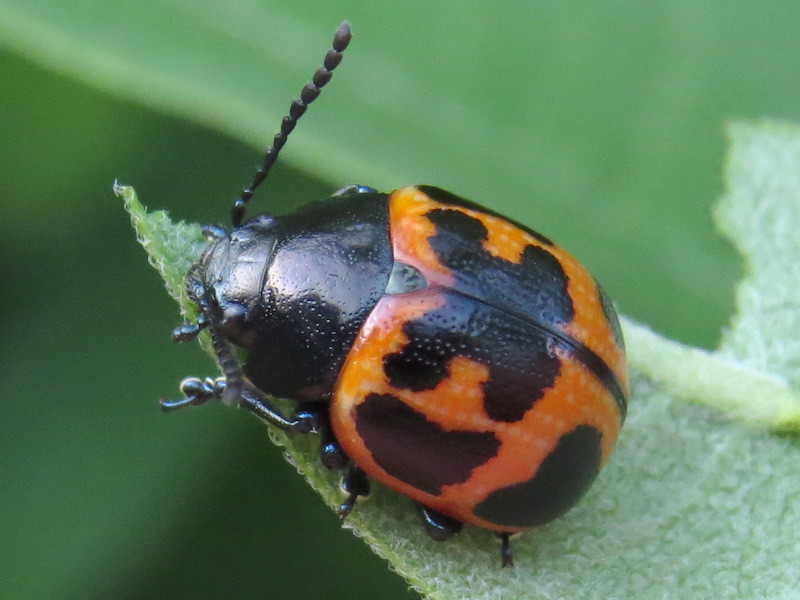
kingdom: Animalia
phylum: Arthropoda
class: Insecta
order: Coleoptera
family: Chrysomelidae
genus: Labidomera
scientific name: Labidomera clivicollis
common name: Swamp milkweed leaf beetle
